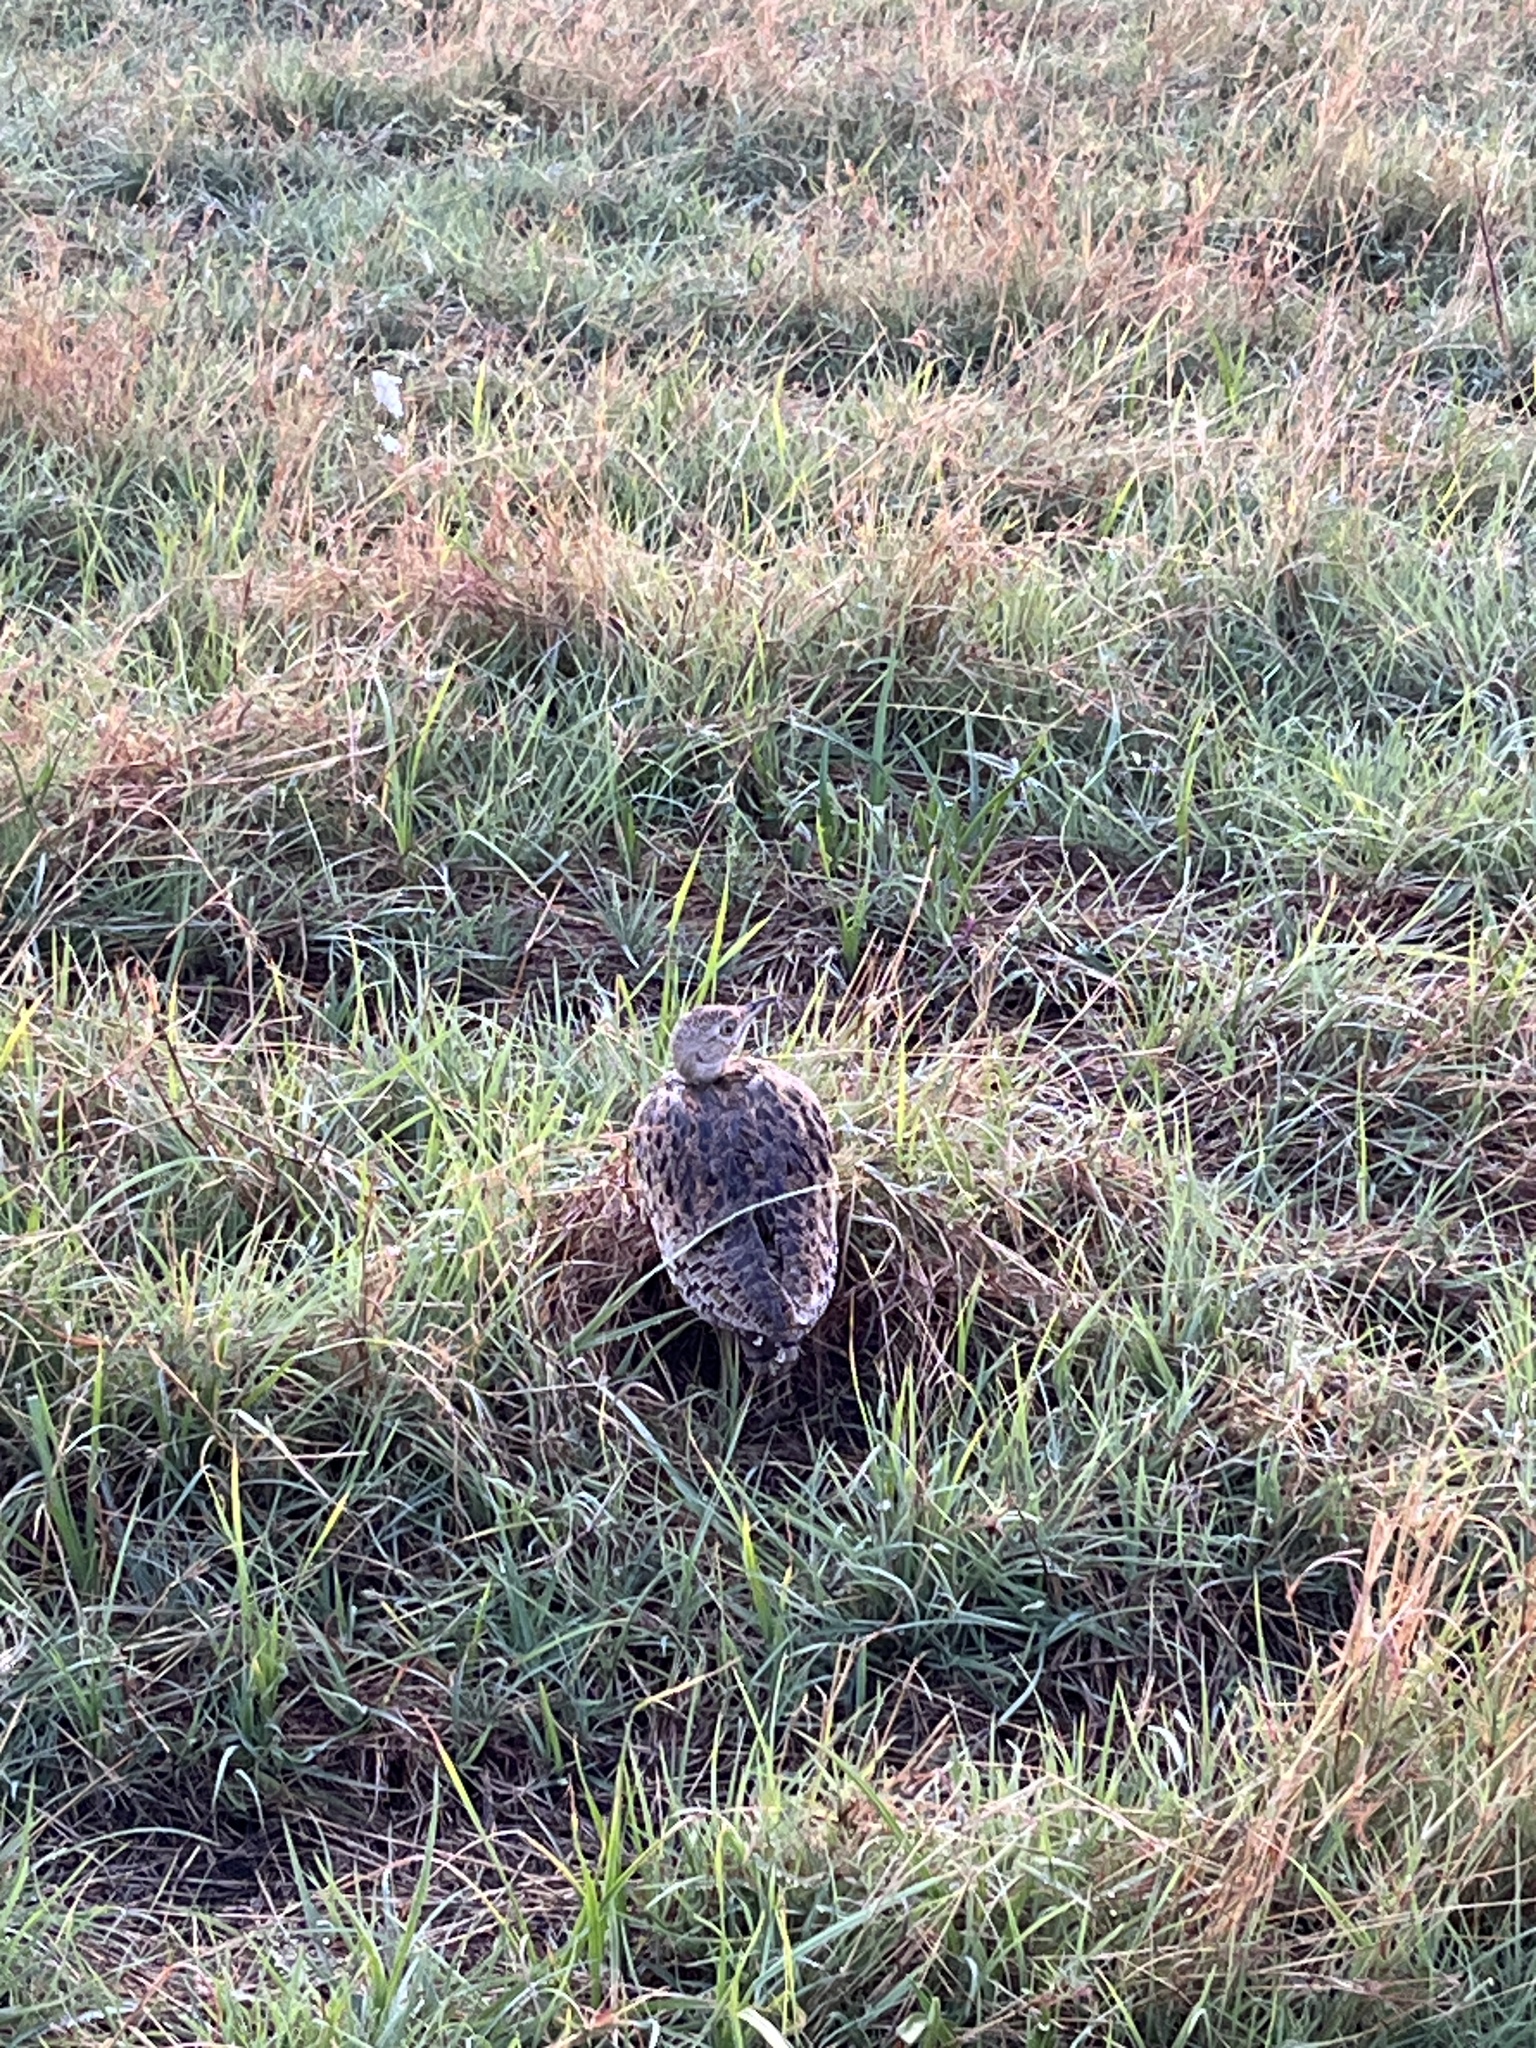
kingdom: Animalia
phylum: Chordata
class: Aves
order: Otidiformes
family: Otididae
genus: Eupodotis
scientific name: Eupodotis senegalensis
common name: White-bellied bustard
